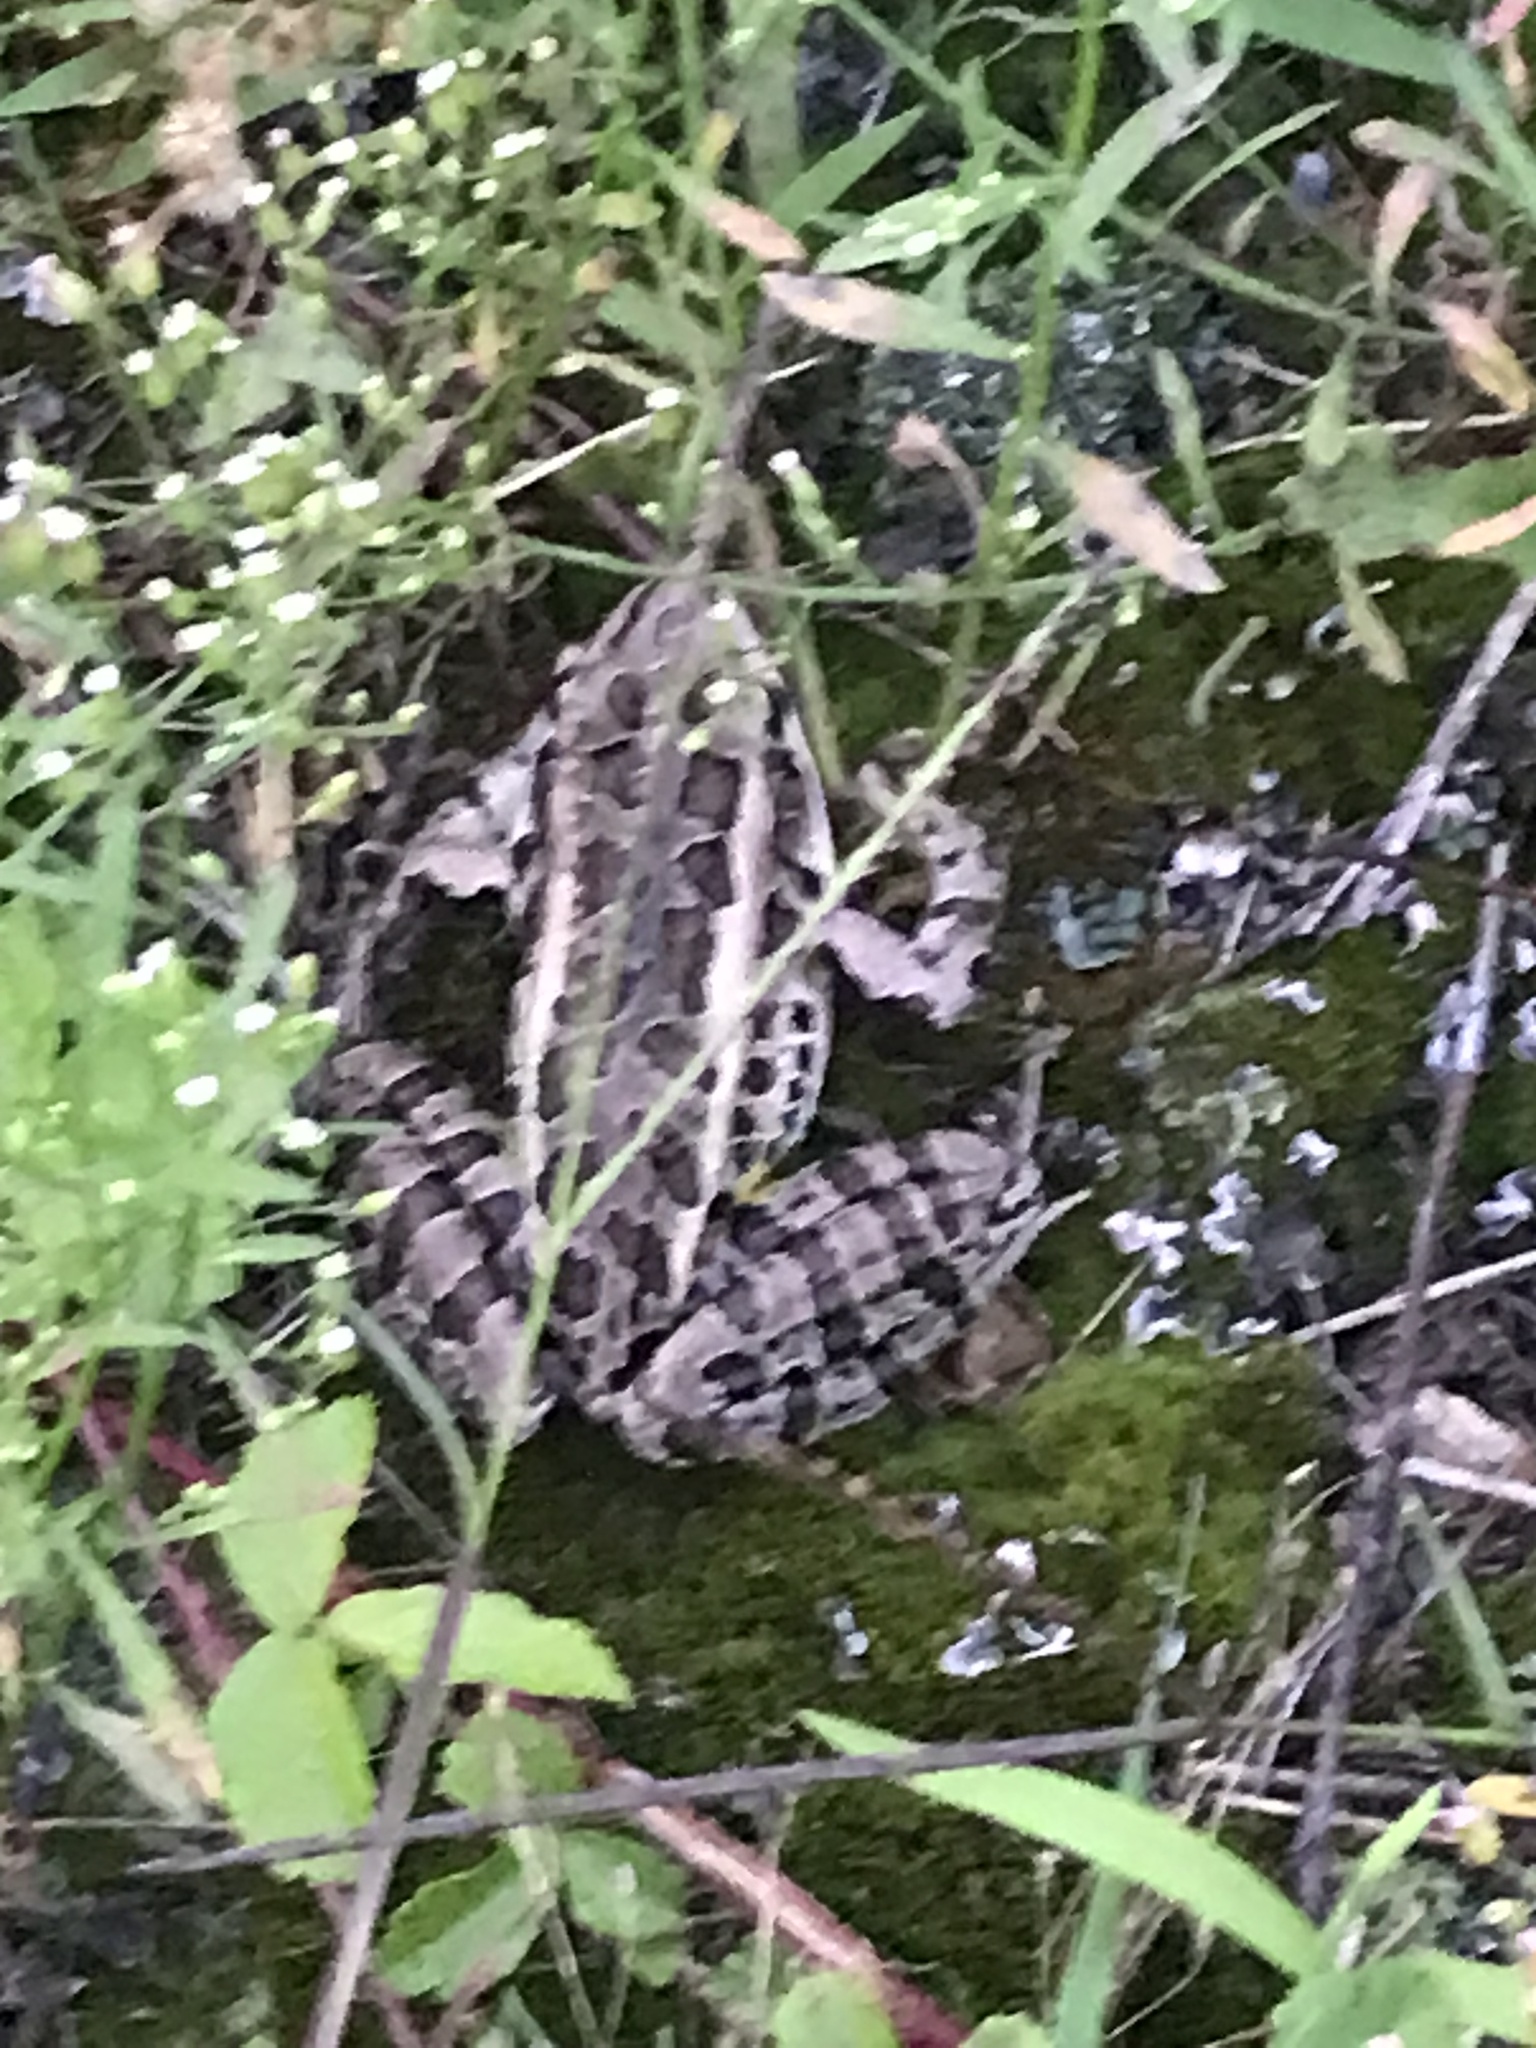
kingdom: Animalia
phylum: Chordata
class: Amphibia
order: Anura
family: Ranidae
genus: Lithobates
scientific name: Lithobates palustris
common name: Pickerel frog
